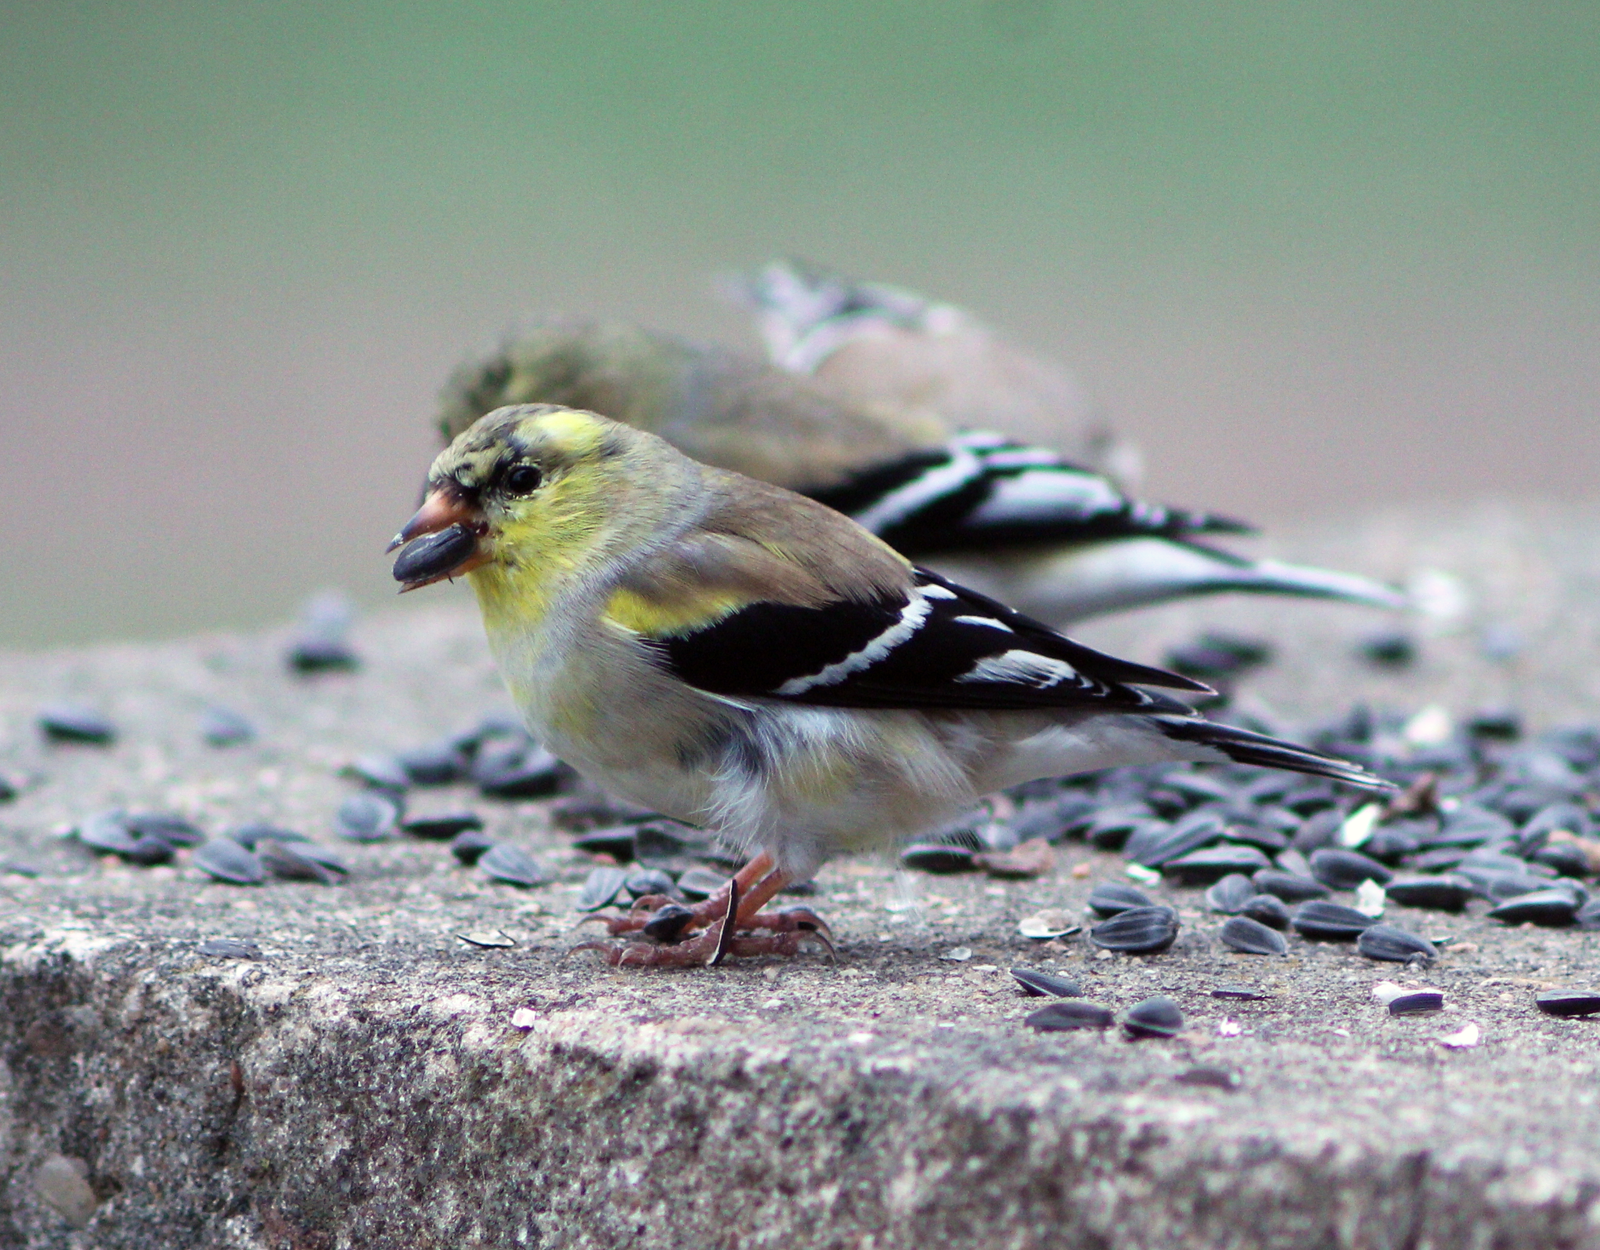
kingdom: Animalia
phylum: Chordata
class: Aves
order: Passeriformes
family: Fringillidae
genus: Spinus
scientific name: Spinus tristis
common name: American goldfinch
